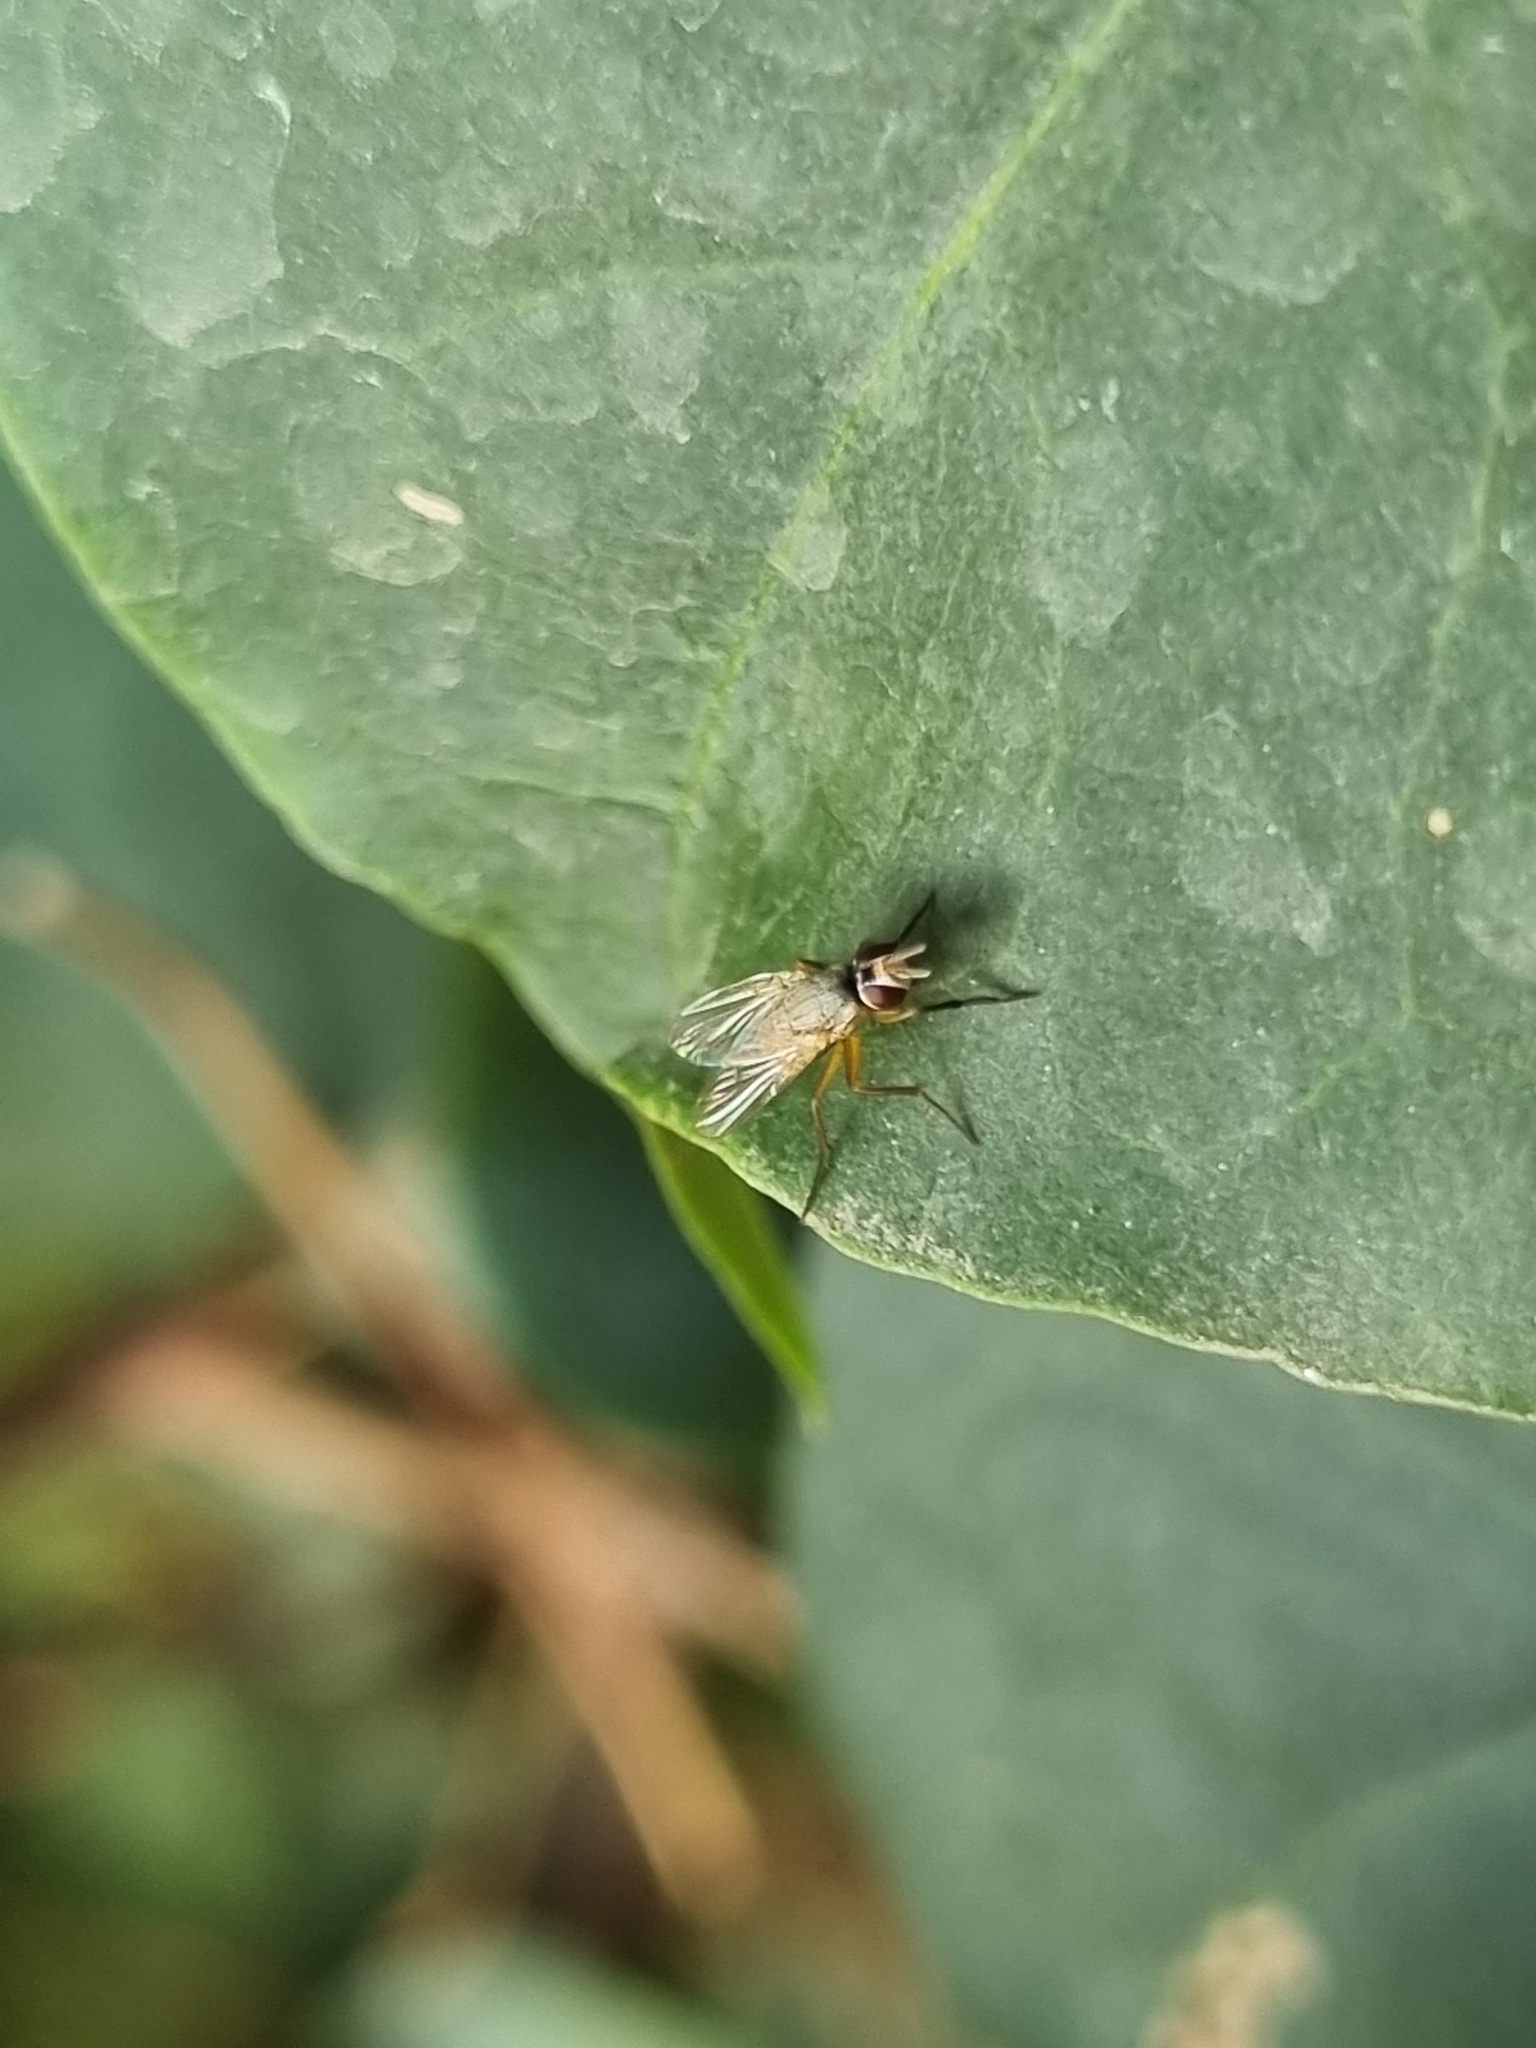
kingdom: Animalia
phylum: Arthropoda
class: Insecta
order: Diptera
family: Muscidae
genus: Atherigona
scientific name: Atherigona reversura
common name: Bermudagrass stem maggot
